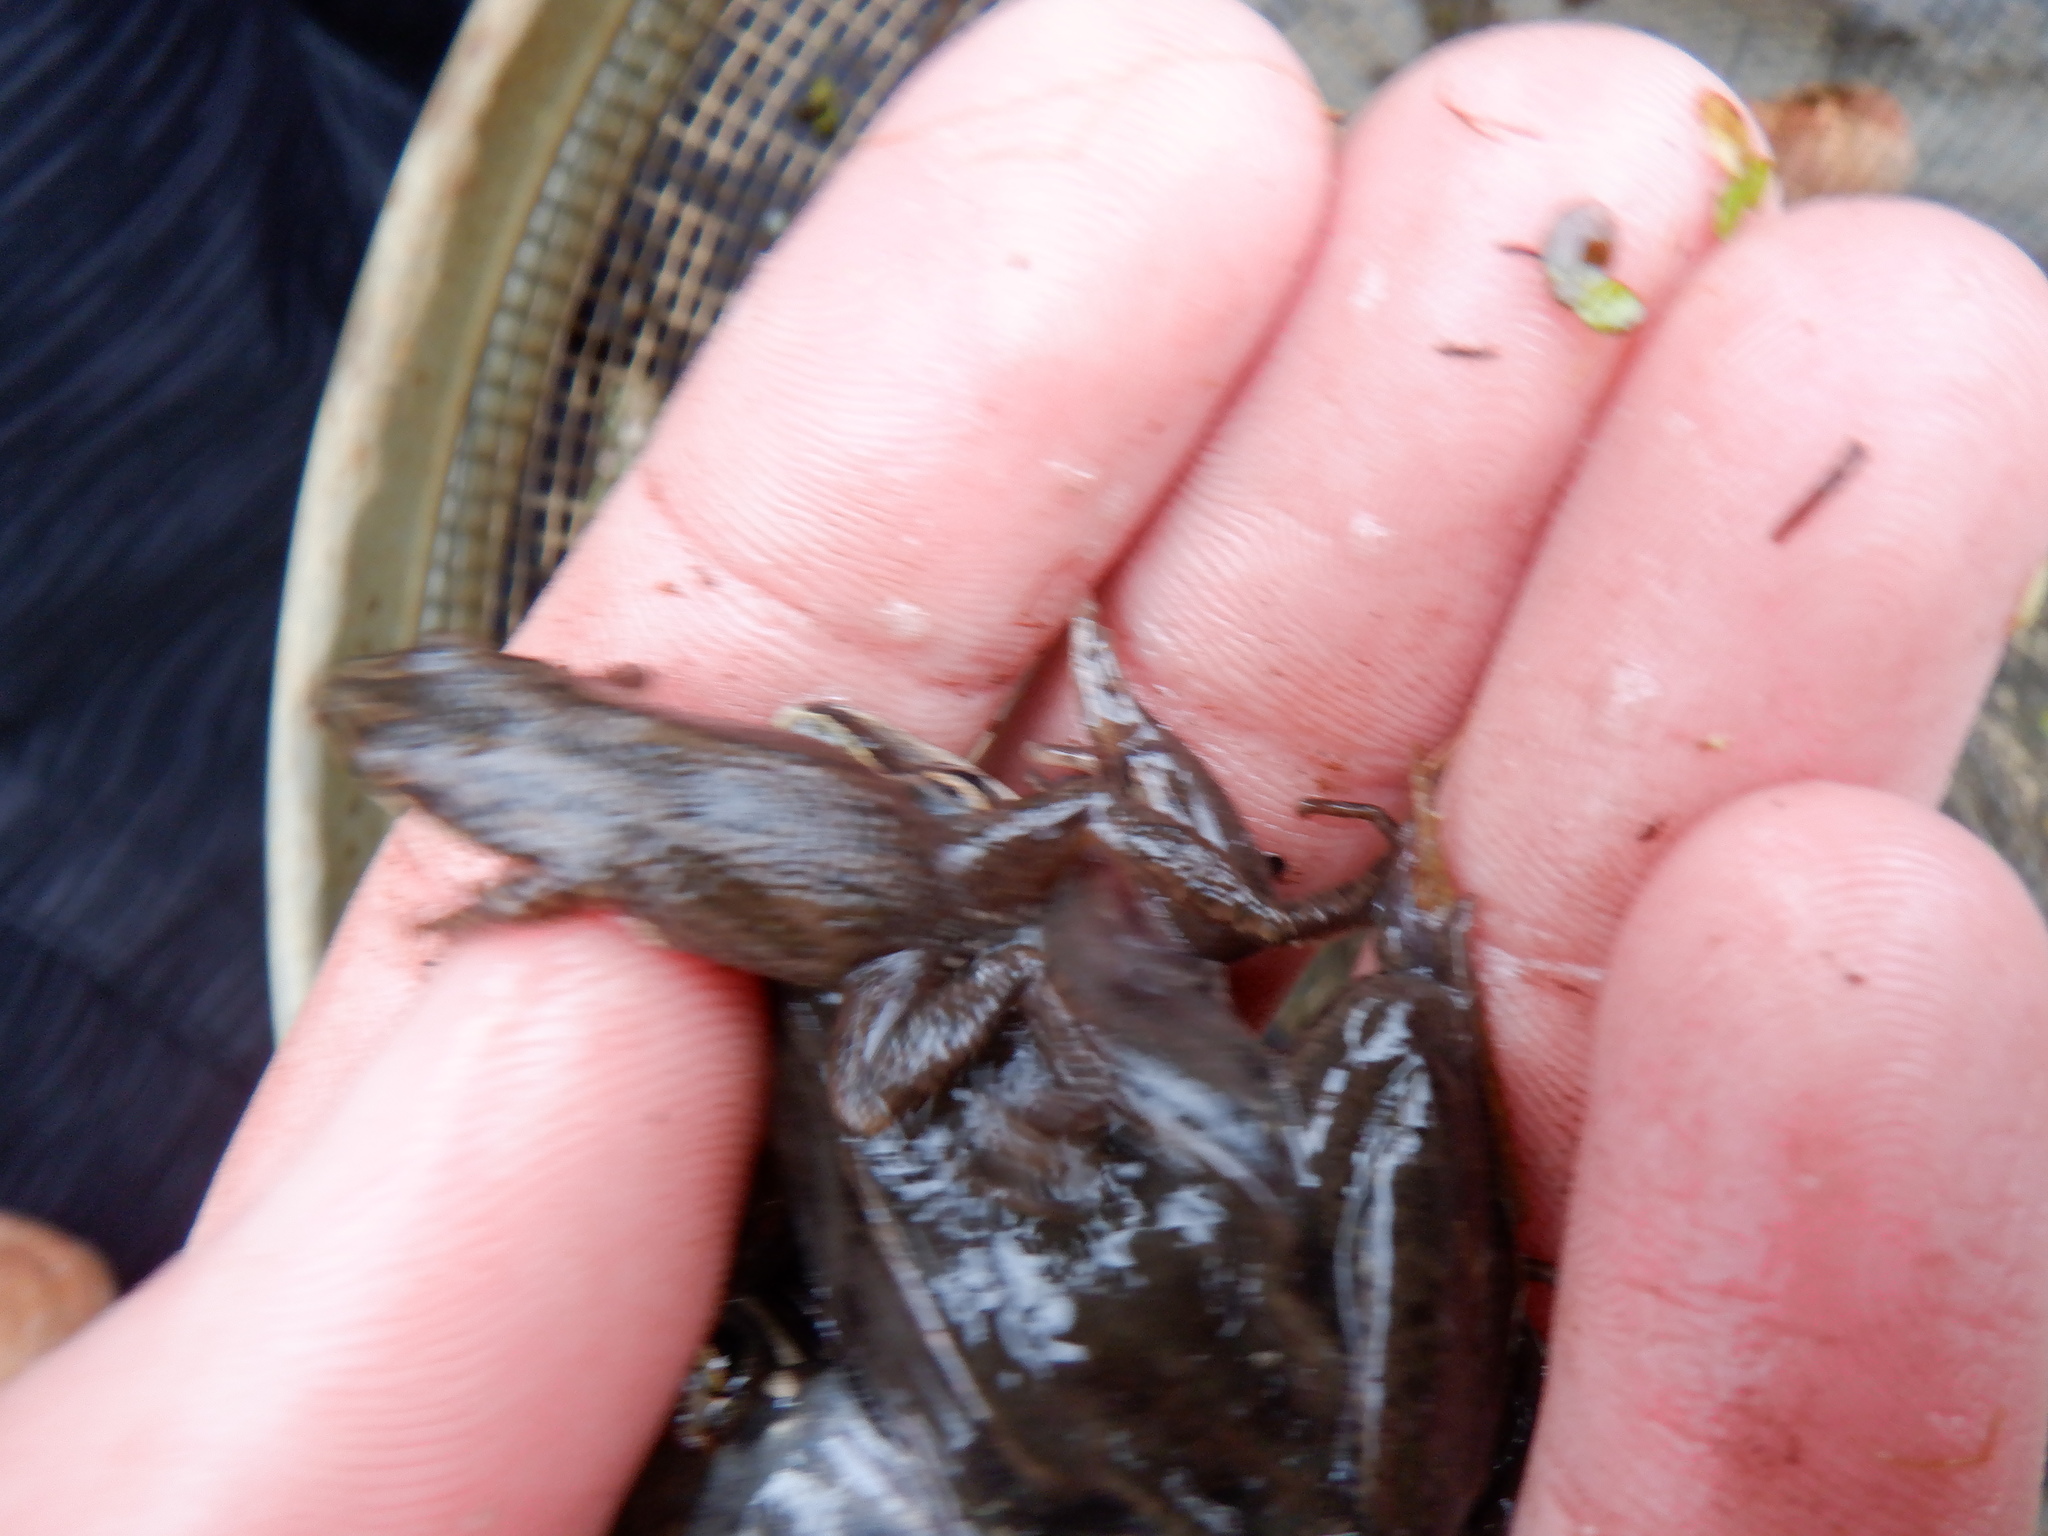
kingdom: Animalia
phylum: Chordata
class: Amphibia
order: Anura
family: Hylidae
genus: Pseudacris
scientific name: Pseudacris maculata
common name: Boreal chorus frog
